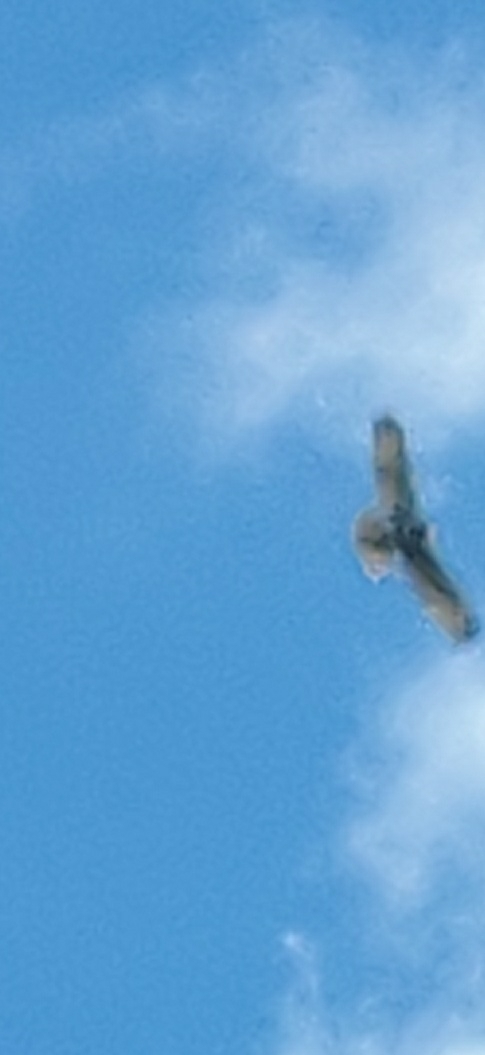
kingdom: Animalia
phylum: Chordata
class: Aves
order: Accipitriformes
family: Accipitridae
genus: Buteo
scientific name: Buteo jamaicensis
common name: Red-tailed hawk
